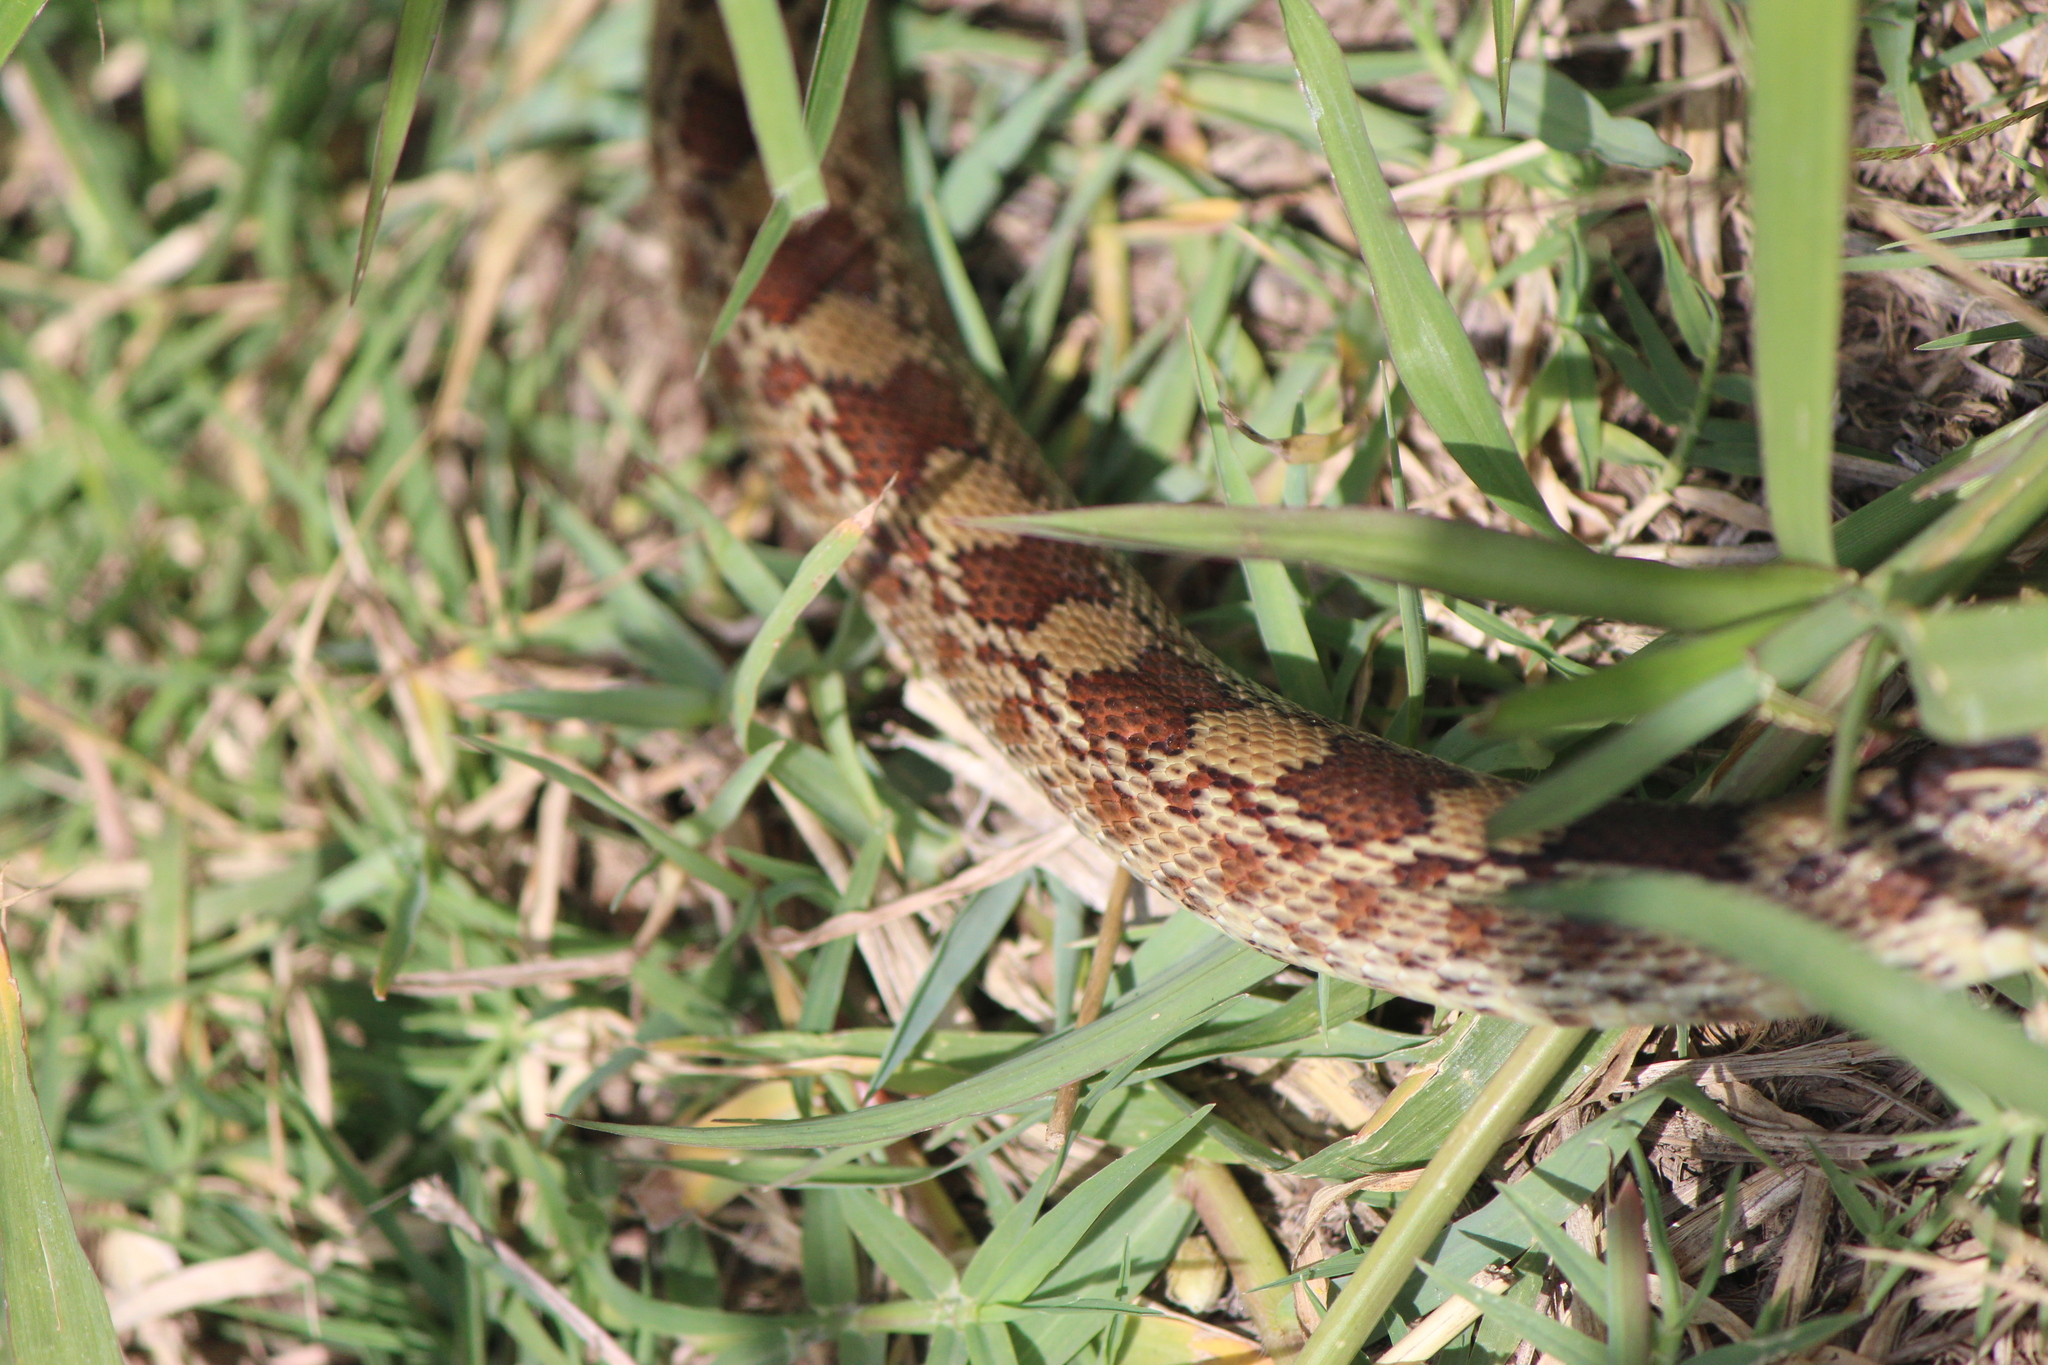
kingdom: Animalia
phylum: Chordata
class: Squamata
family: Colubridae
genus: Pituophis
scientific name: Pituophis deppei
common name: Mexican bull snake
